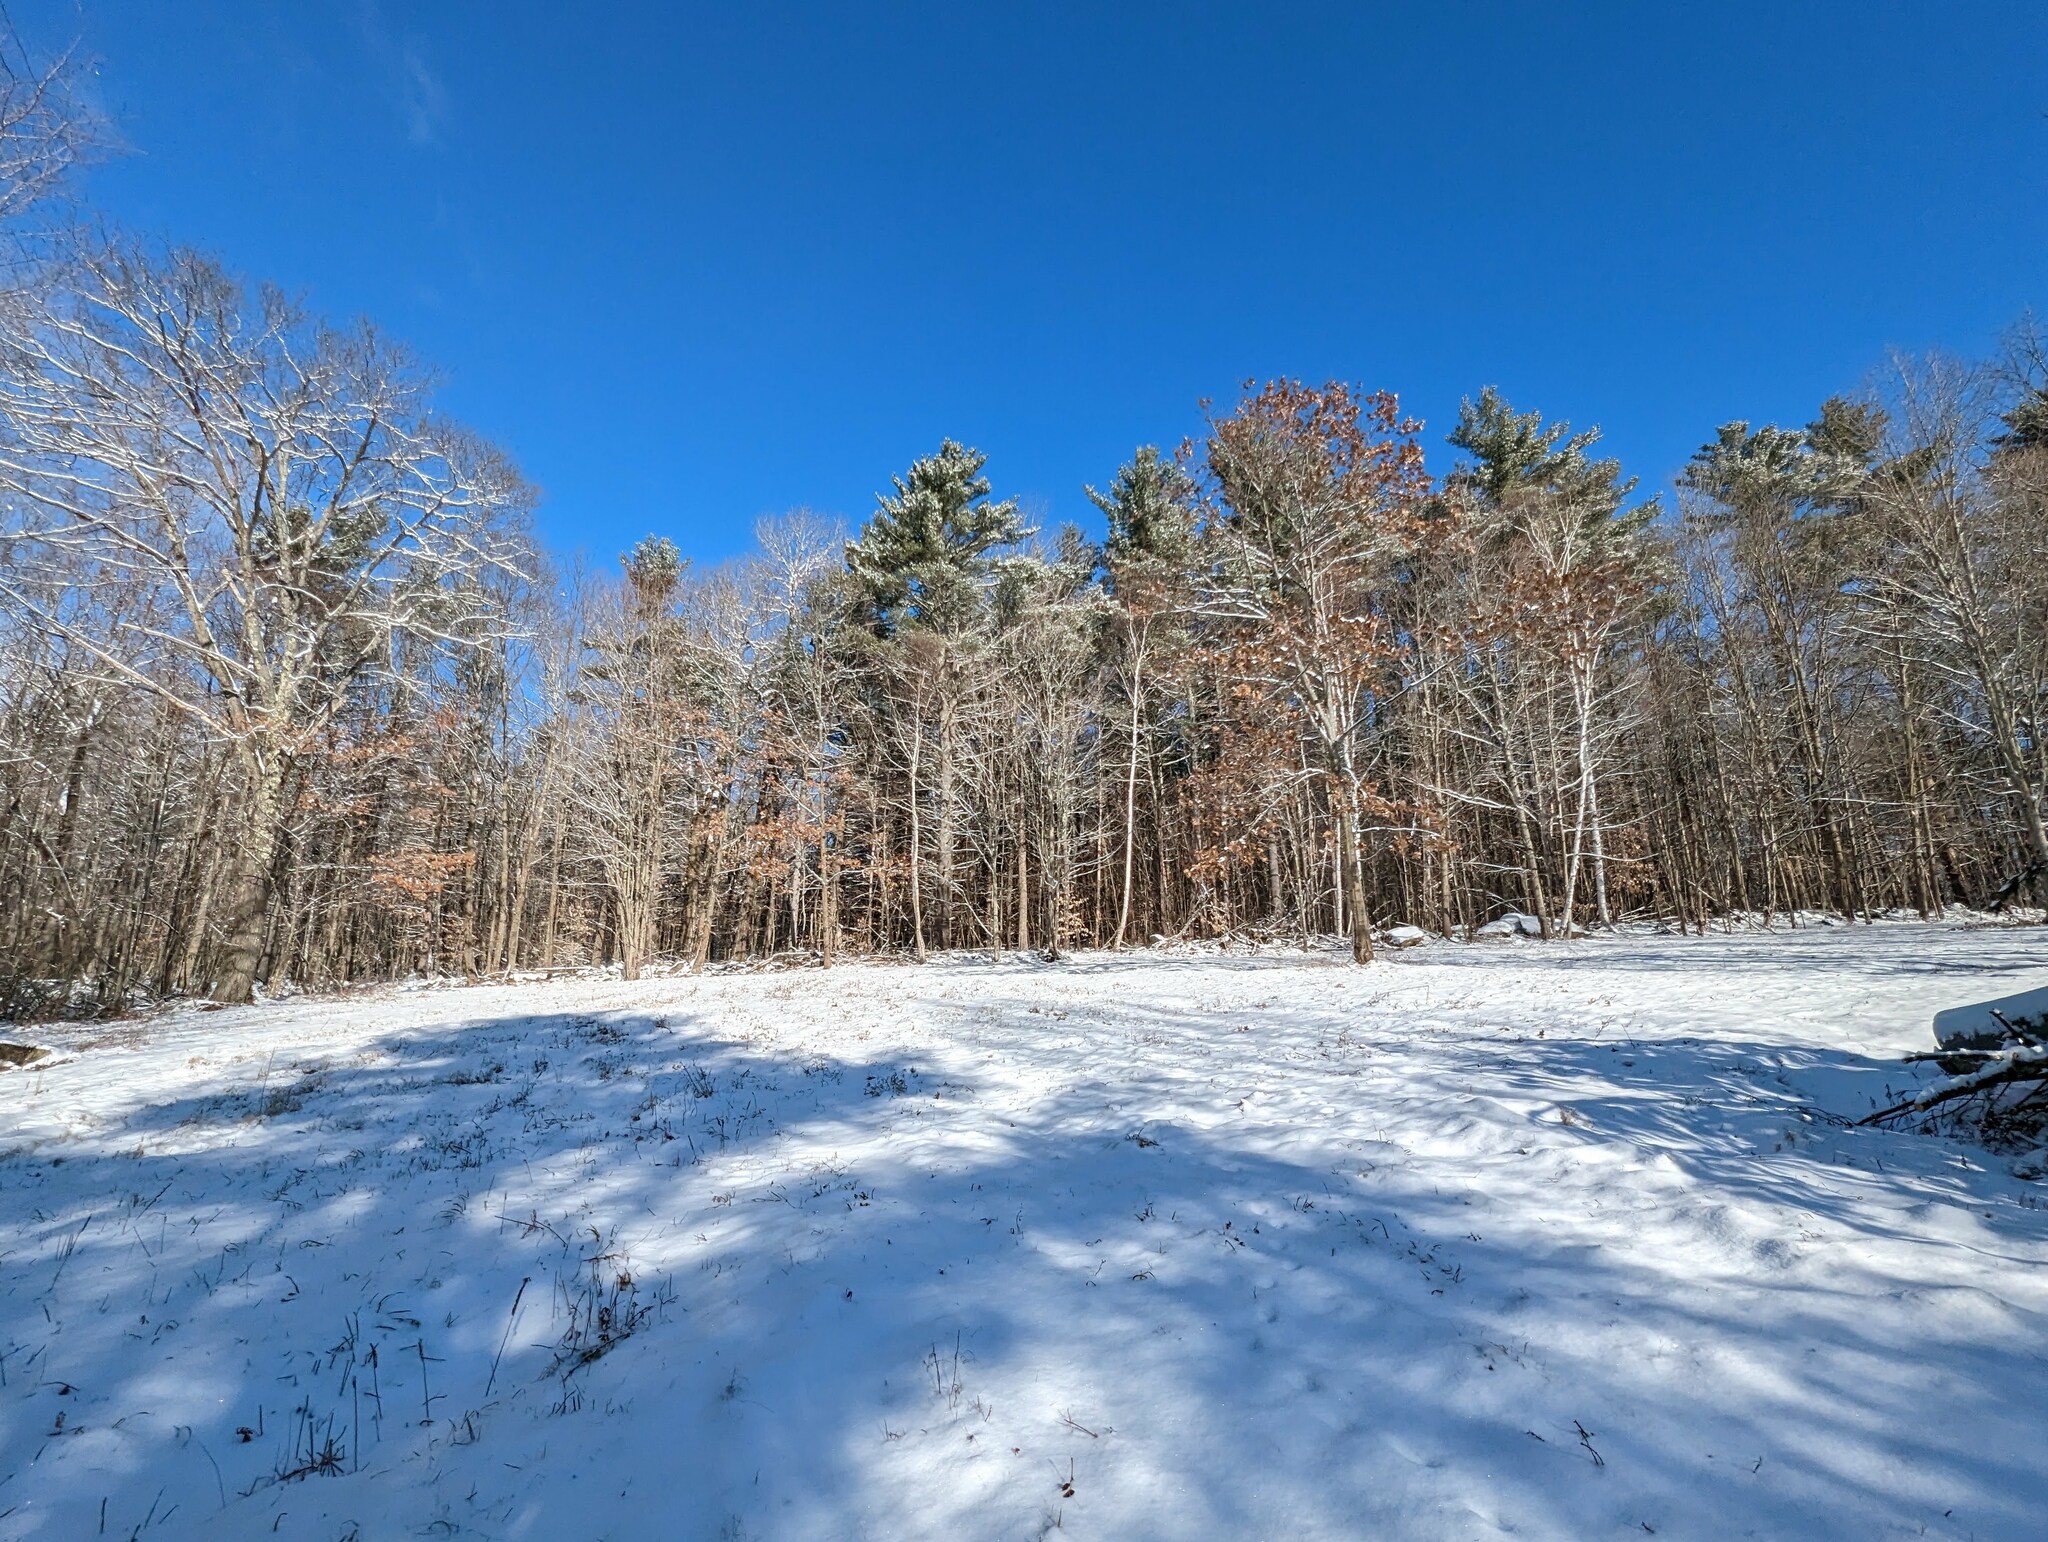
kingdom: Plantae
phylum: Tracheophyta
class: Pinopsida
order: Pinales
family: Pinaceae
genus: Pinus
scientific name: Pinus strobus
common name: Weymouth pine
